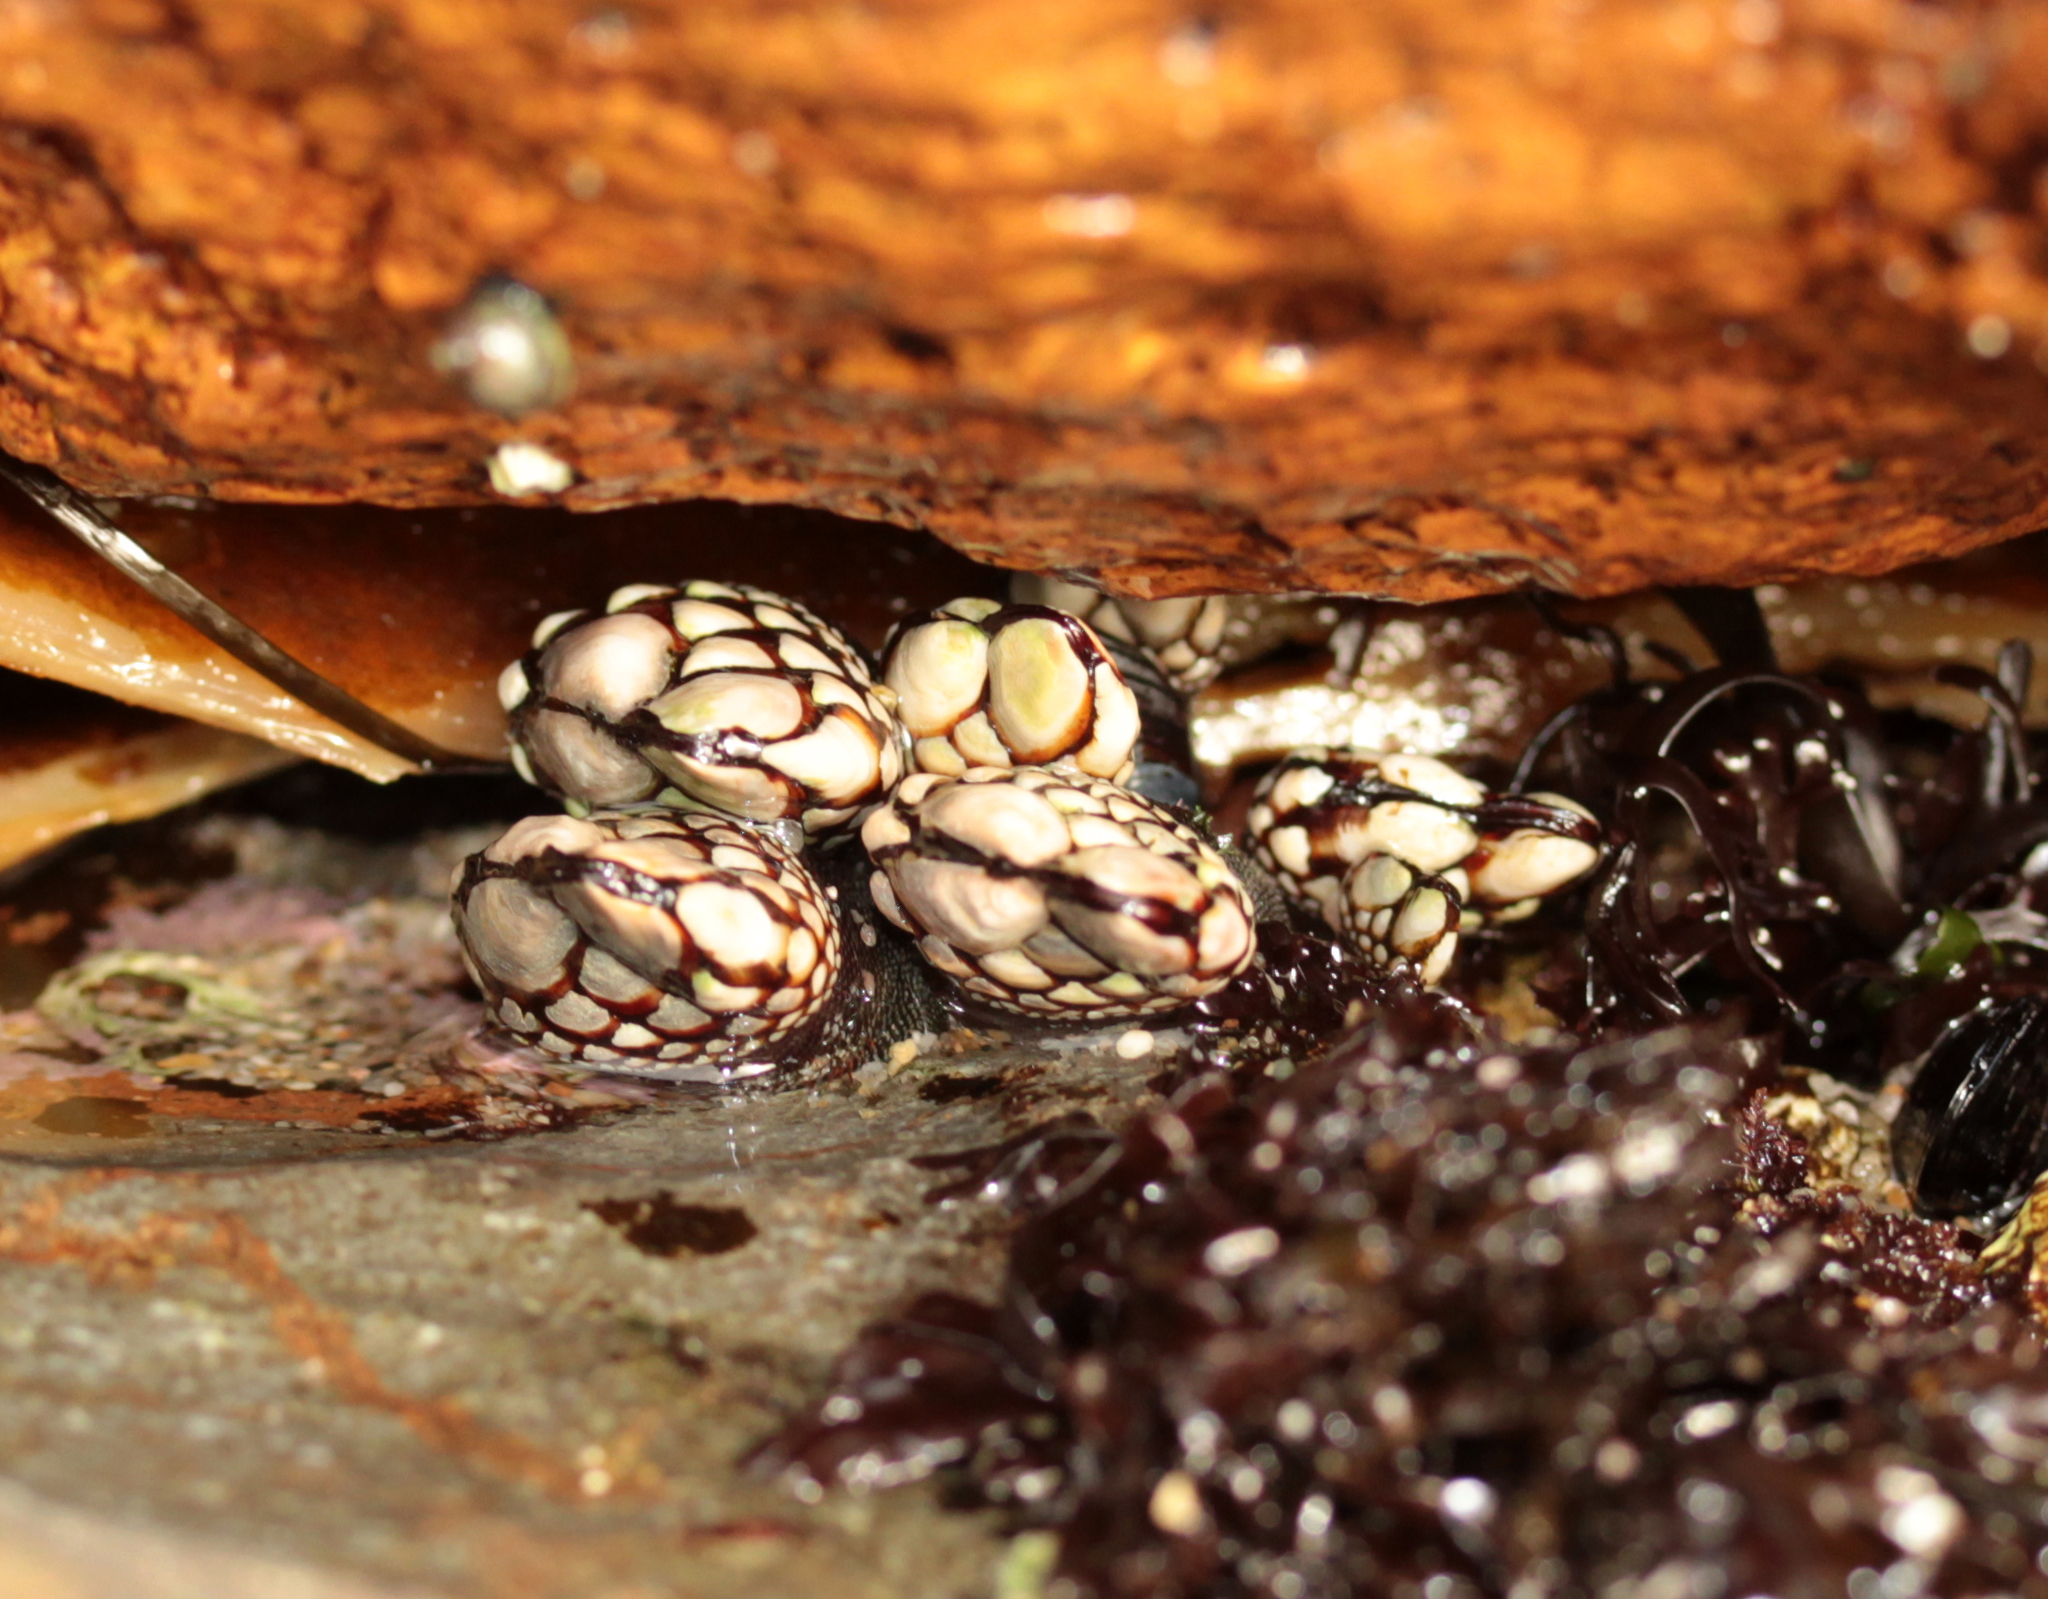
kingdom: Animalia
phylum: Arthropoda
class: Maxillopoda
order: Pedunculata
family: Pollicipedidae
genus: Pollicipes
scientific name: Pollicipes polymerus
